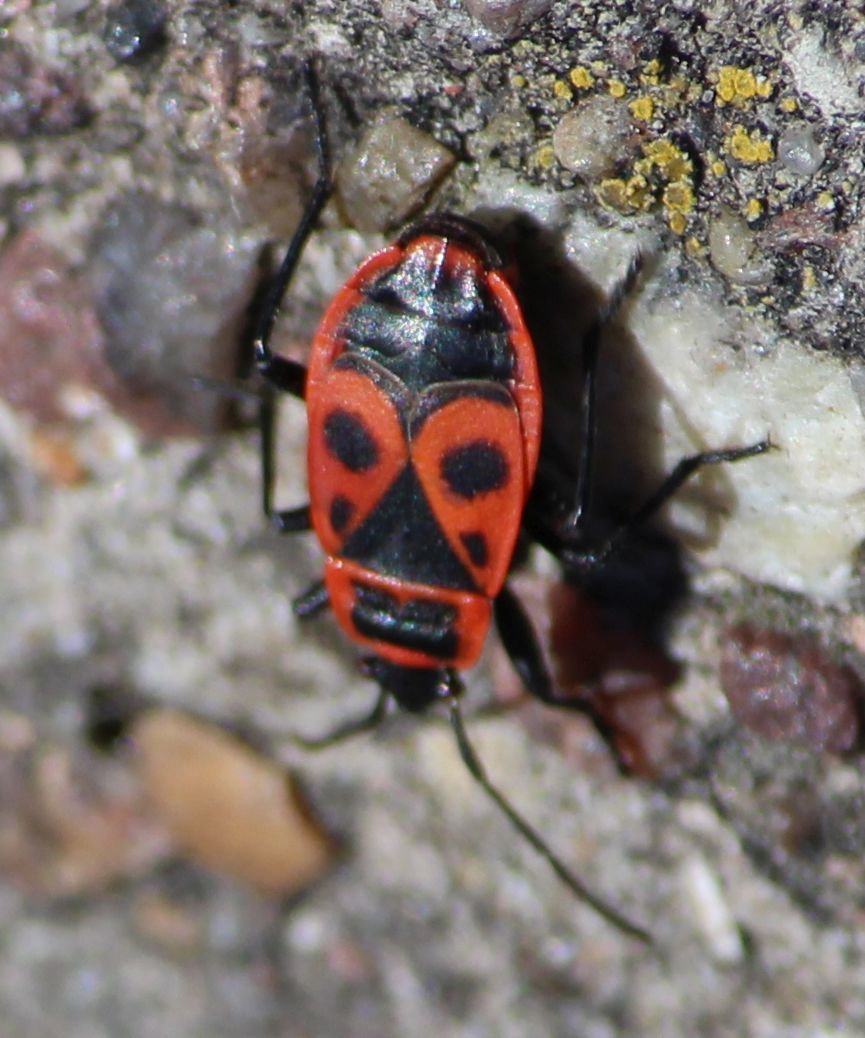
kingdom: Animalia
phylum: Arthropoda
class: Insecta
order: Hemiptera
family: Pyrrhocoridae
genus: Pyrrhocoris
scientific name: Pyrrhocoris apterus
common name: Firebug
